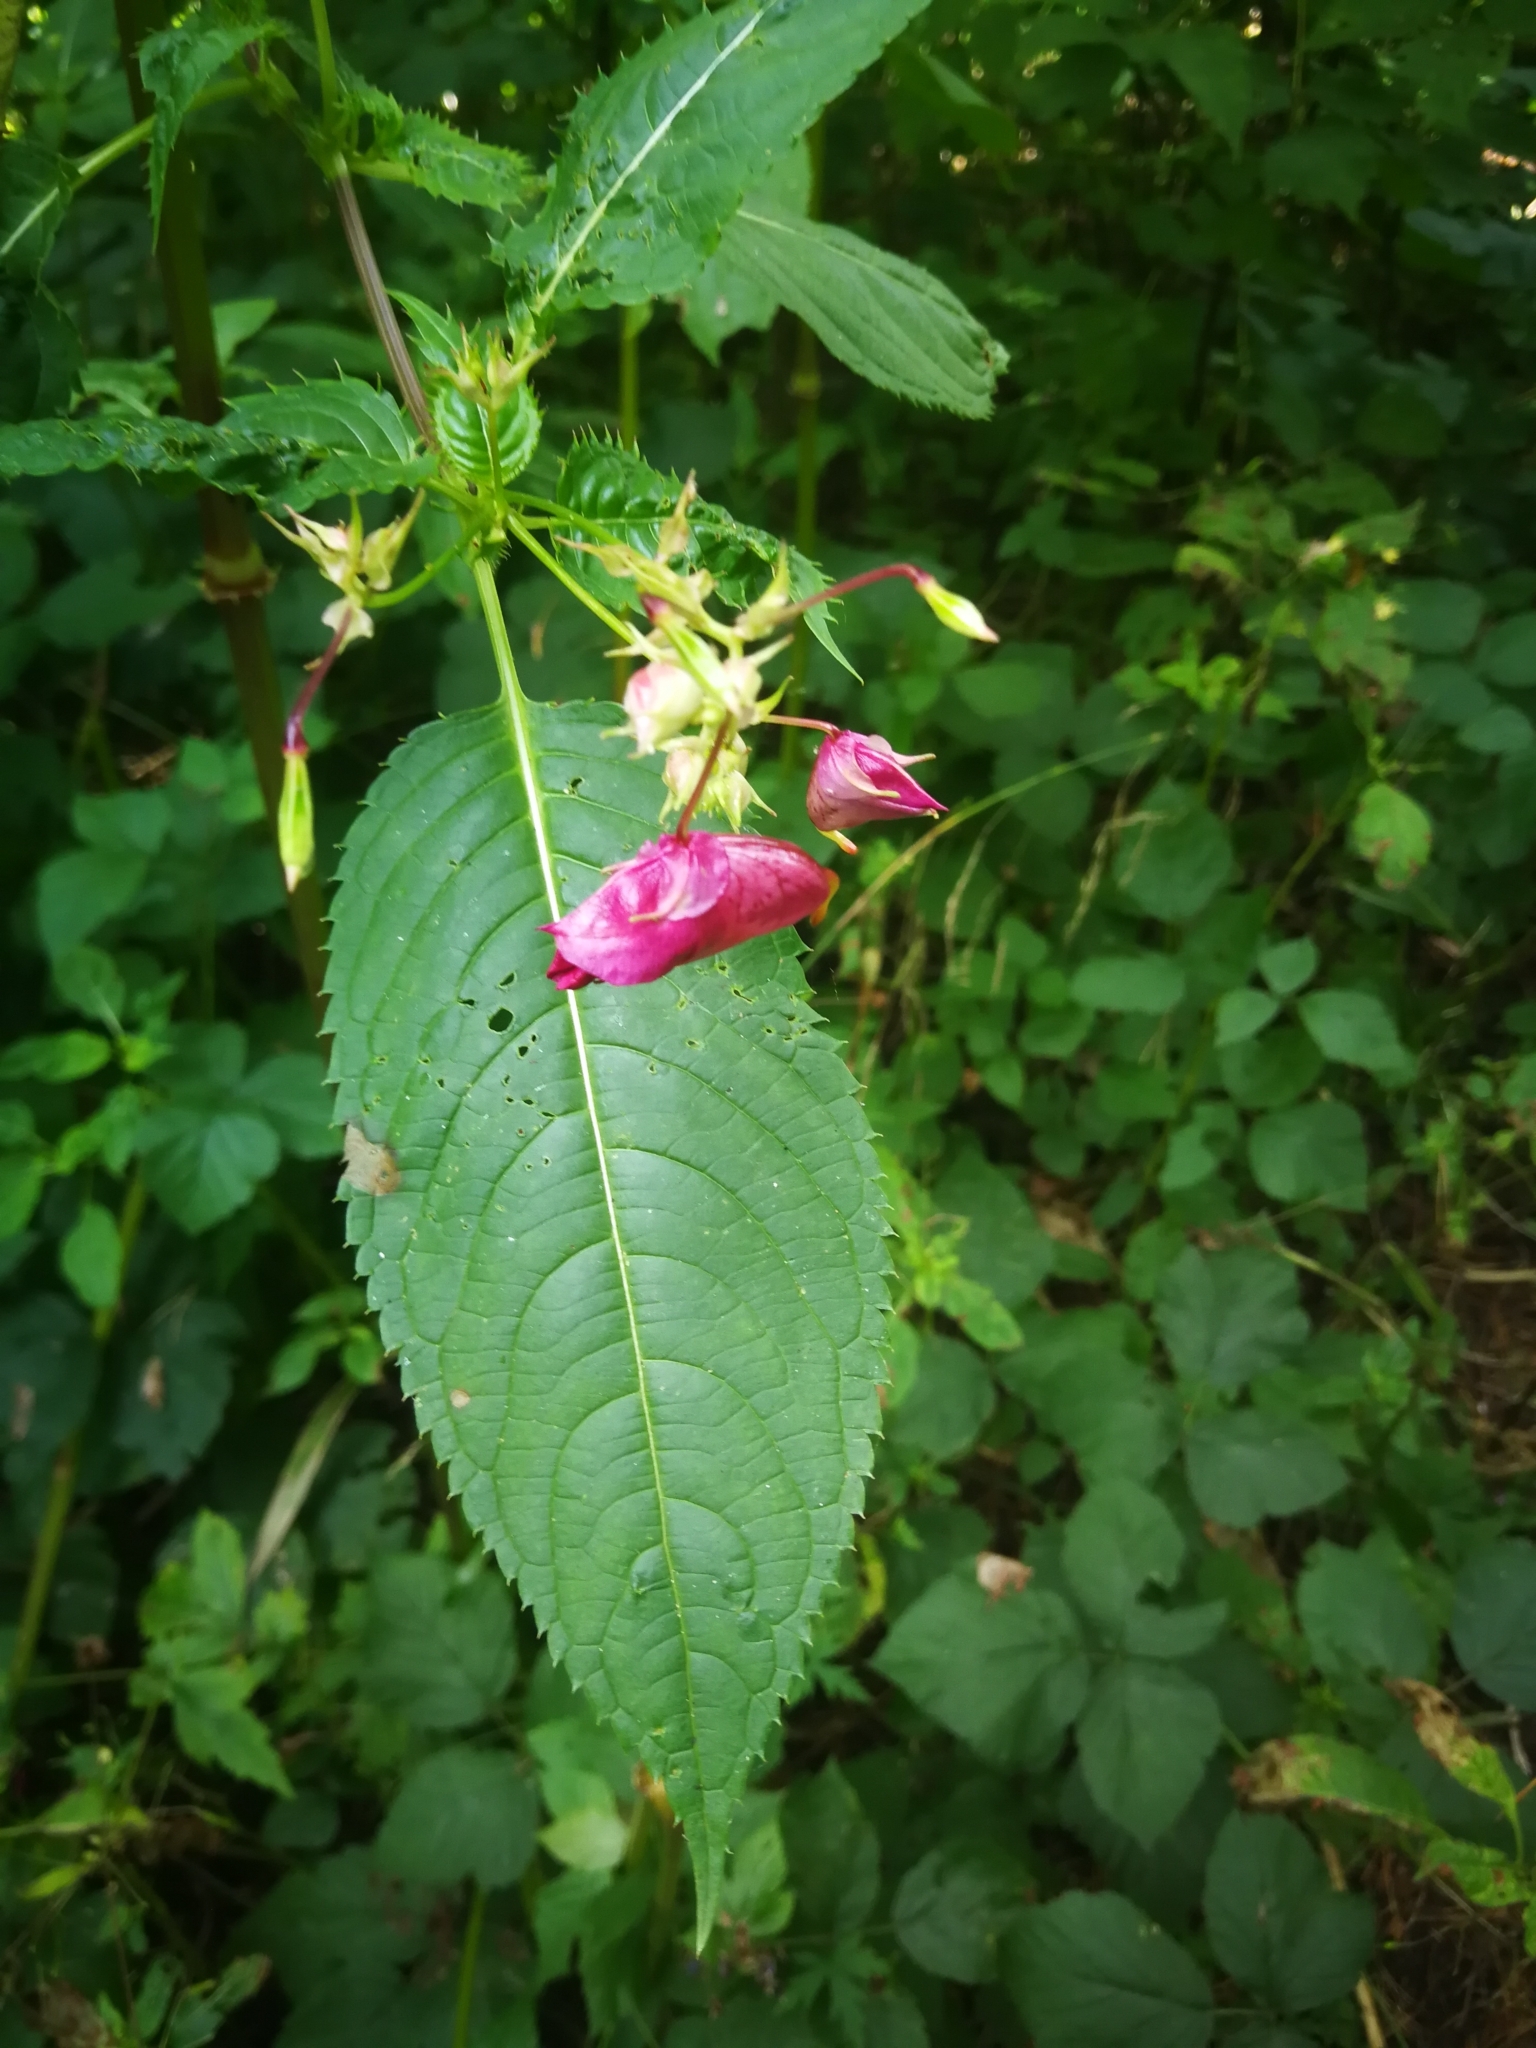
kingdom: Plantae
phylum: Tracheophyta
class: Magnoliopsida
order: Ericales
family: Balsaminaceae
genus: Impatiens
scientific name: Impatiens glandulifera
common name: Himalayan balsam
